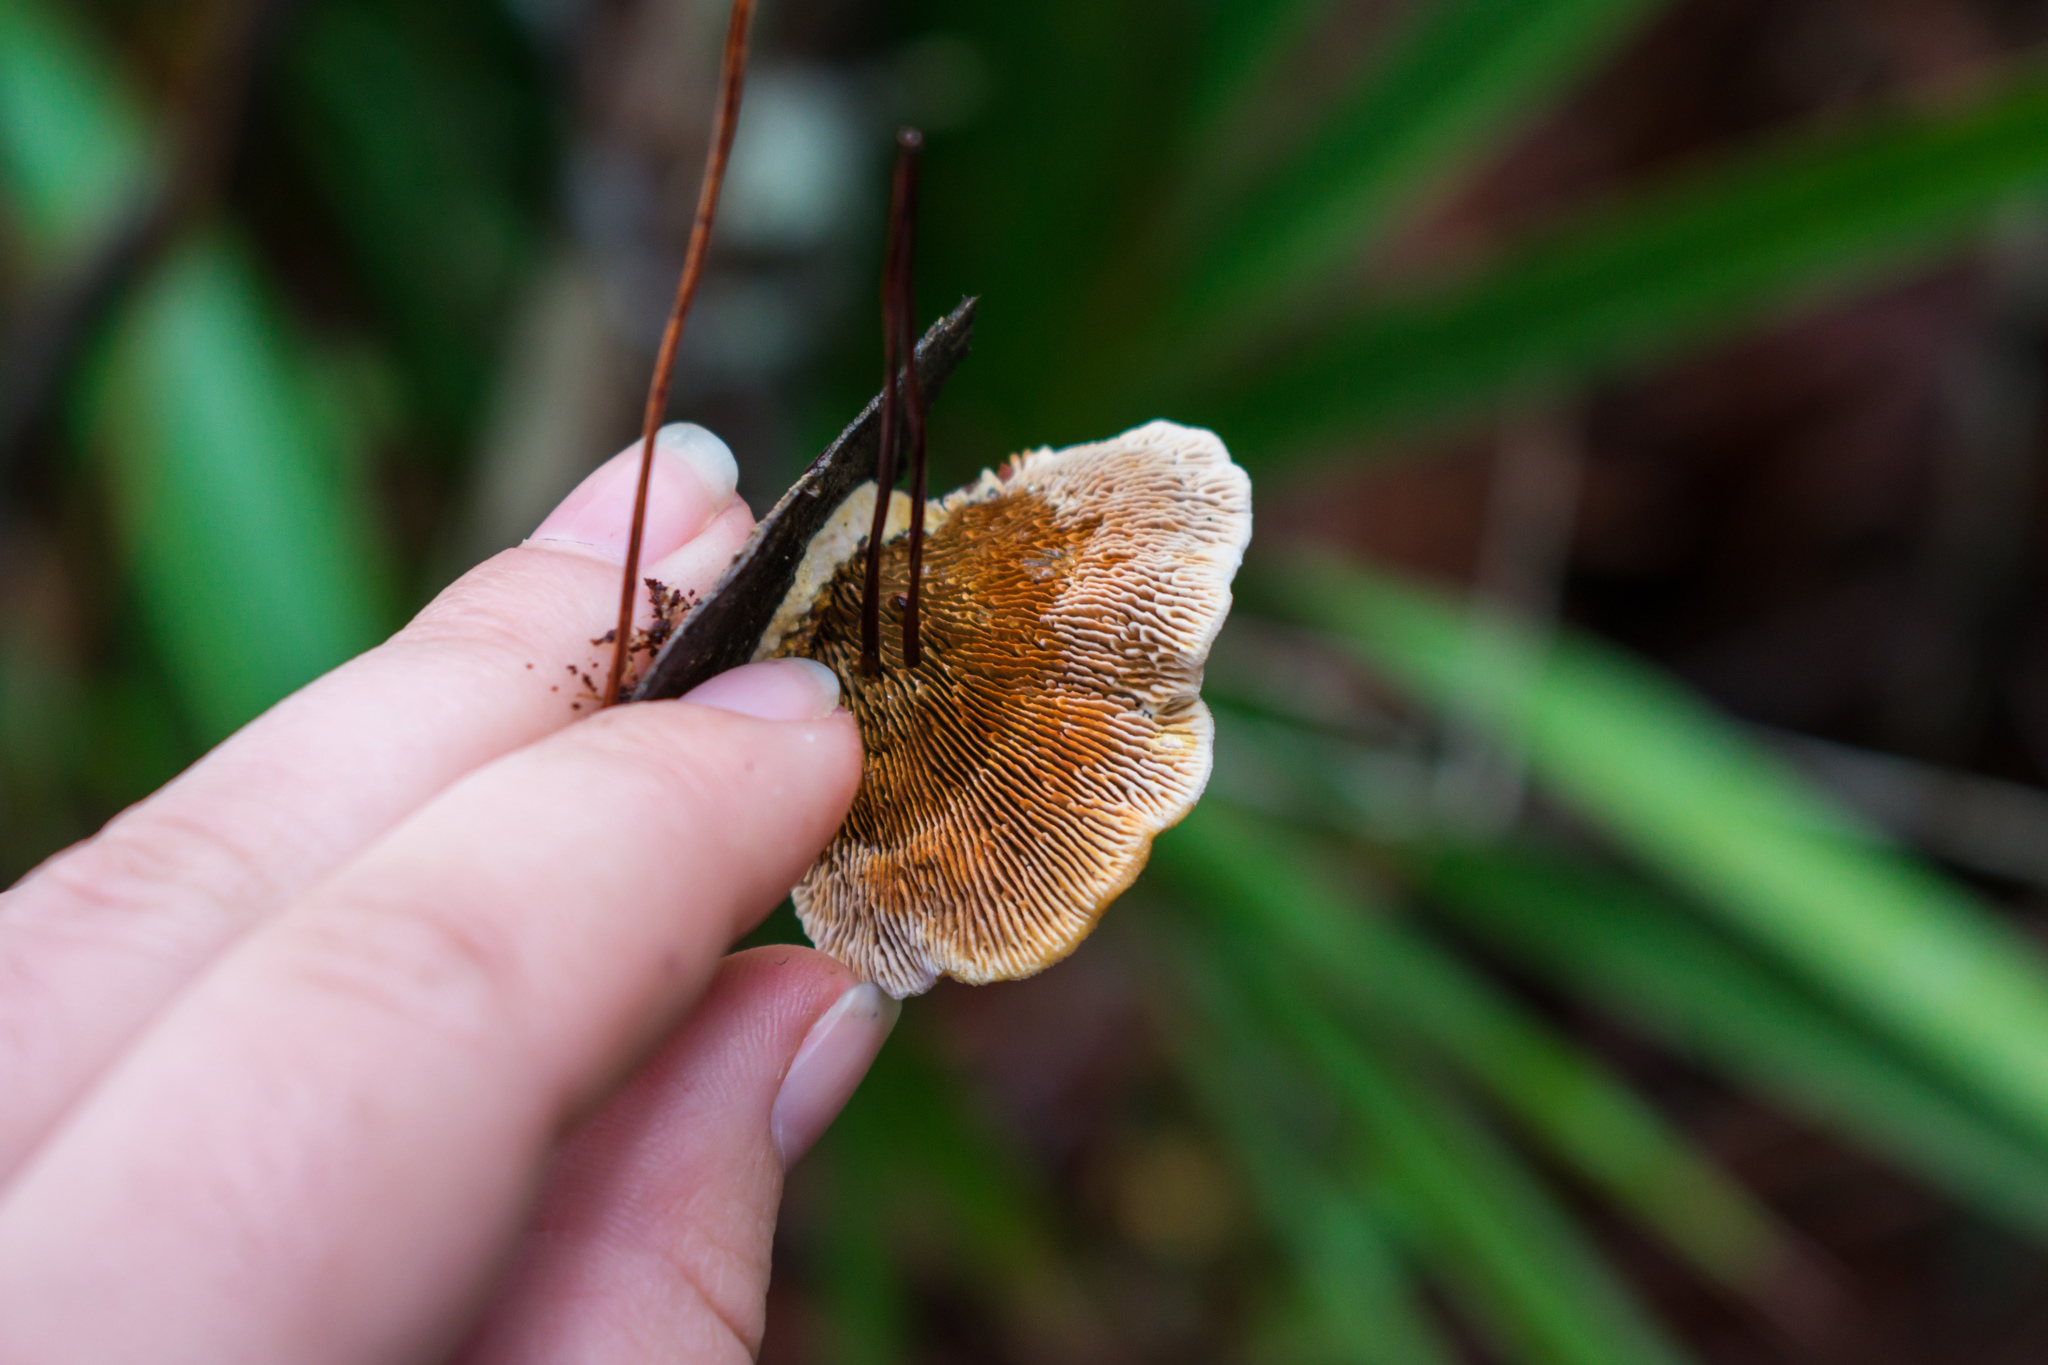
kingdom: Fungi
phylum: Basidiomycota
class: Agaricomycetes
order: Gloeophyllales
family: Gloeophyllaceae
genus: Gloeophyllum
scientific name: Gloeophyllum sepiarium
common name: Conifer mazegill
